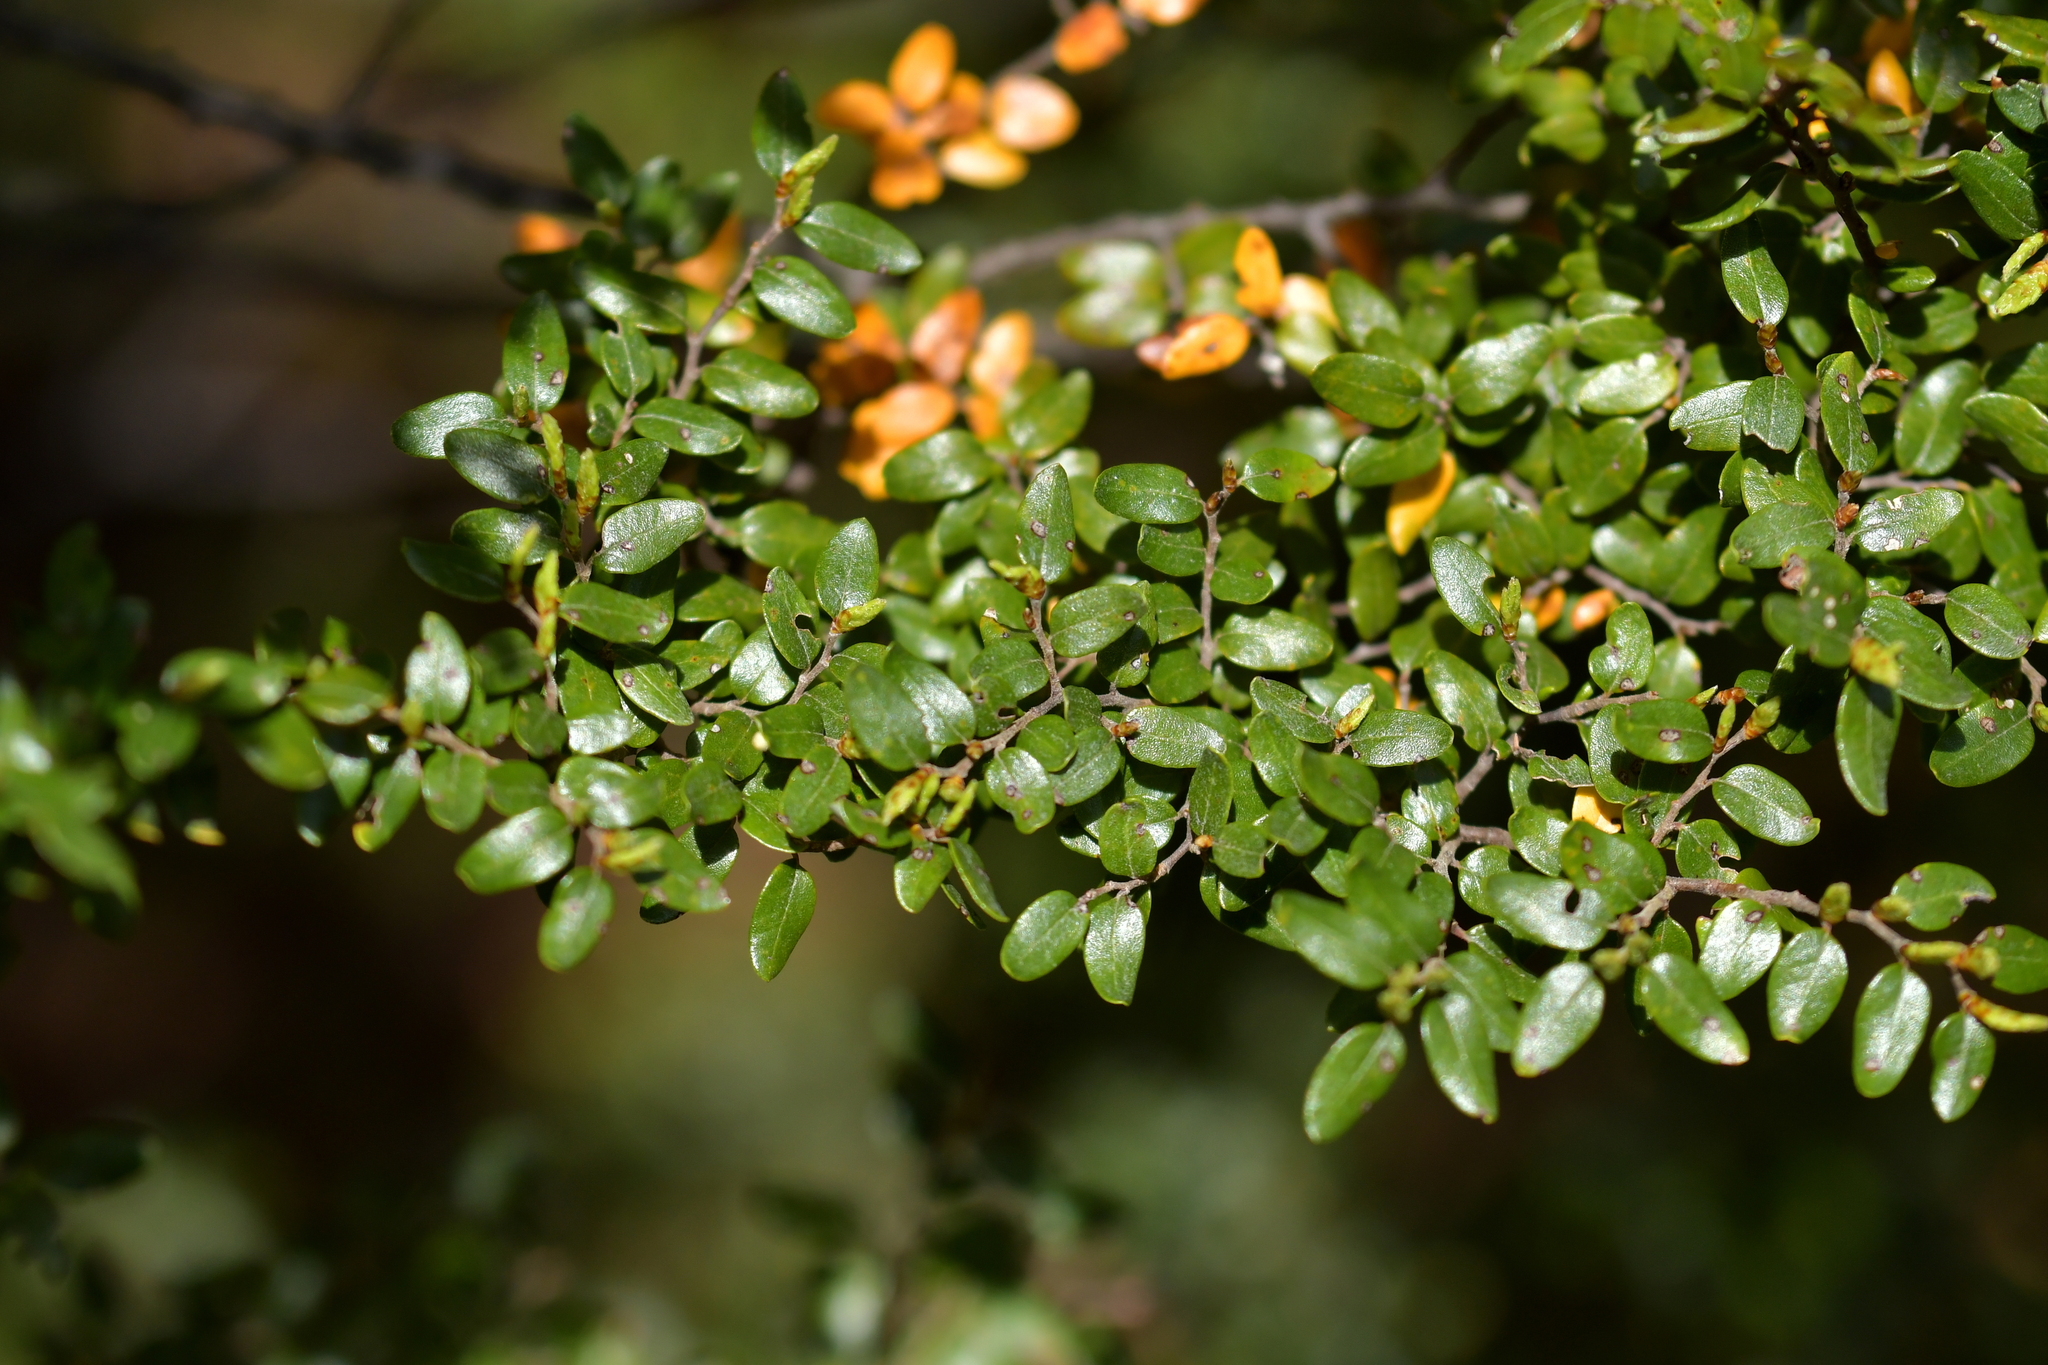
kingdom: Plantae
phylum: Tracheophyta
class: Magnoliopsida
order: Fagales
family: Nothofagaceae
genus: Nothofagus
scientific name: Nothofagus cliffortioides
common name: Mountain beech
